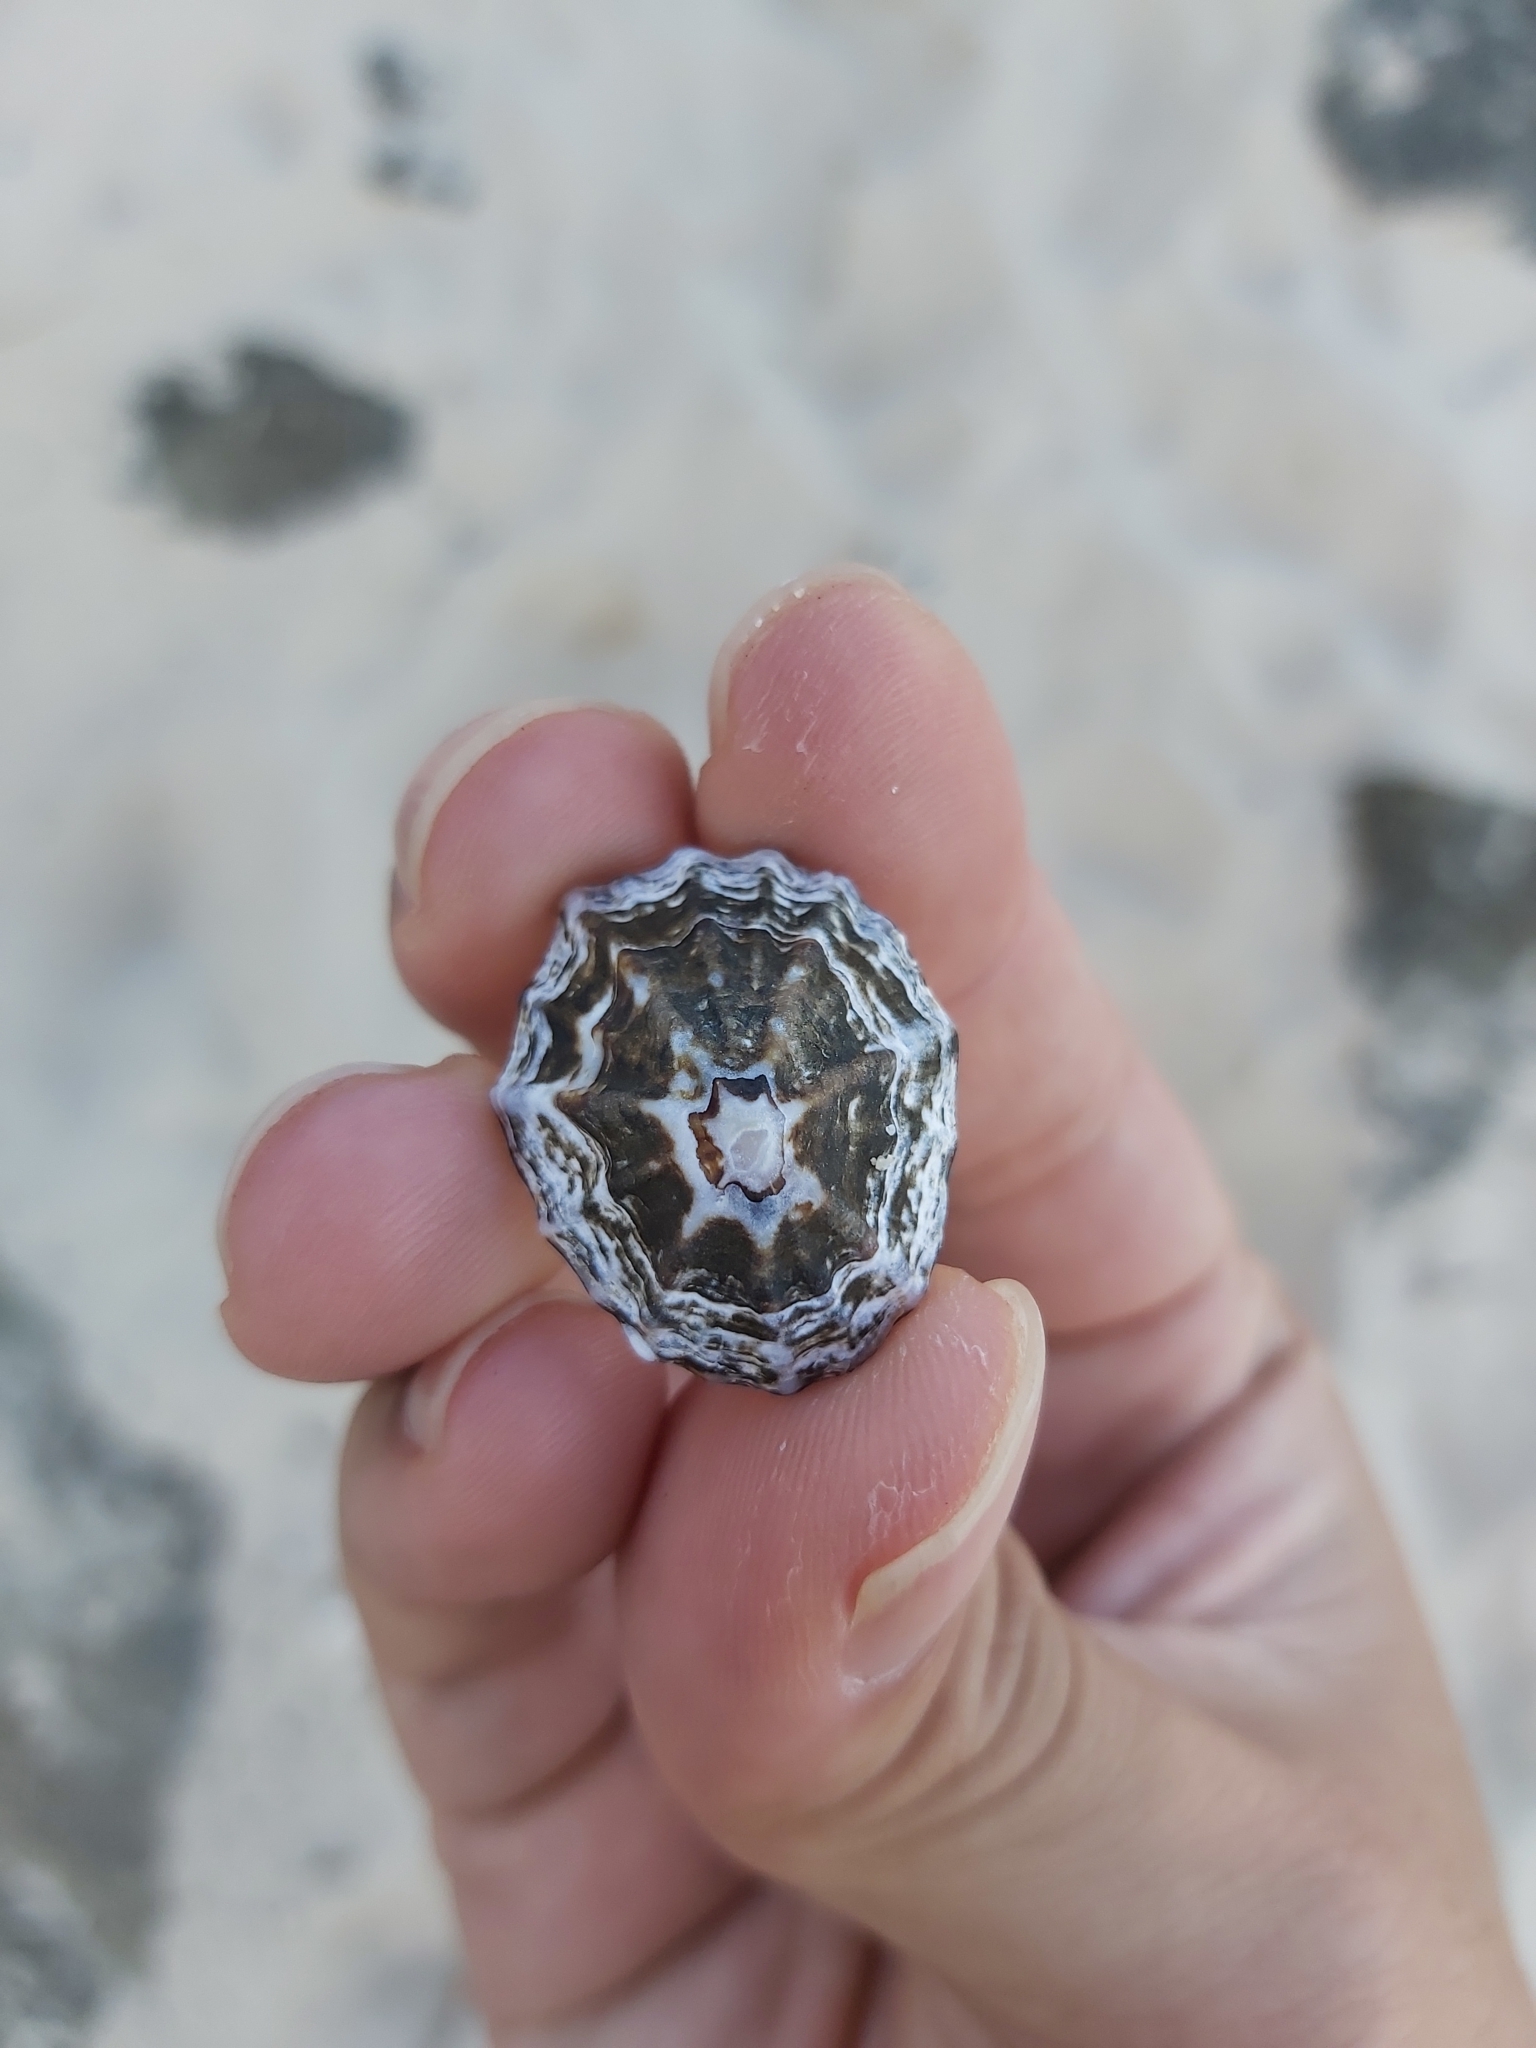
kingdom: Animalia
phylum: Mollusca
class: Gastropoda
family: Lottiidae
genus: Patelloida
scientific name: Patelloida alticostata
